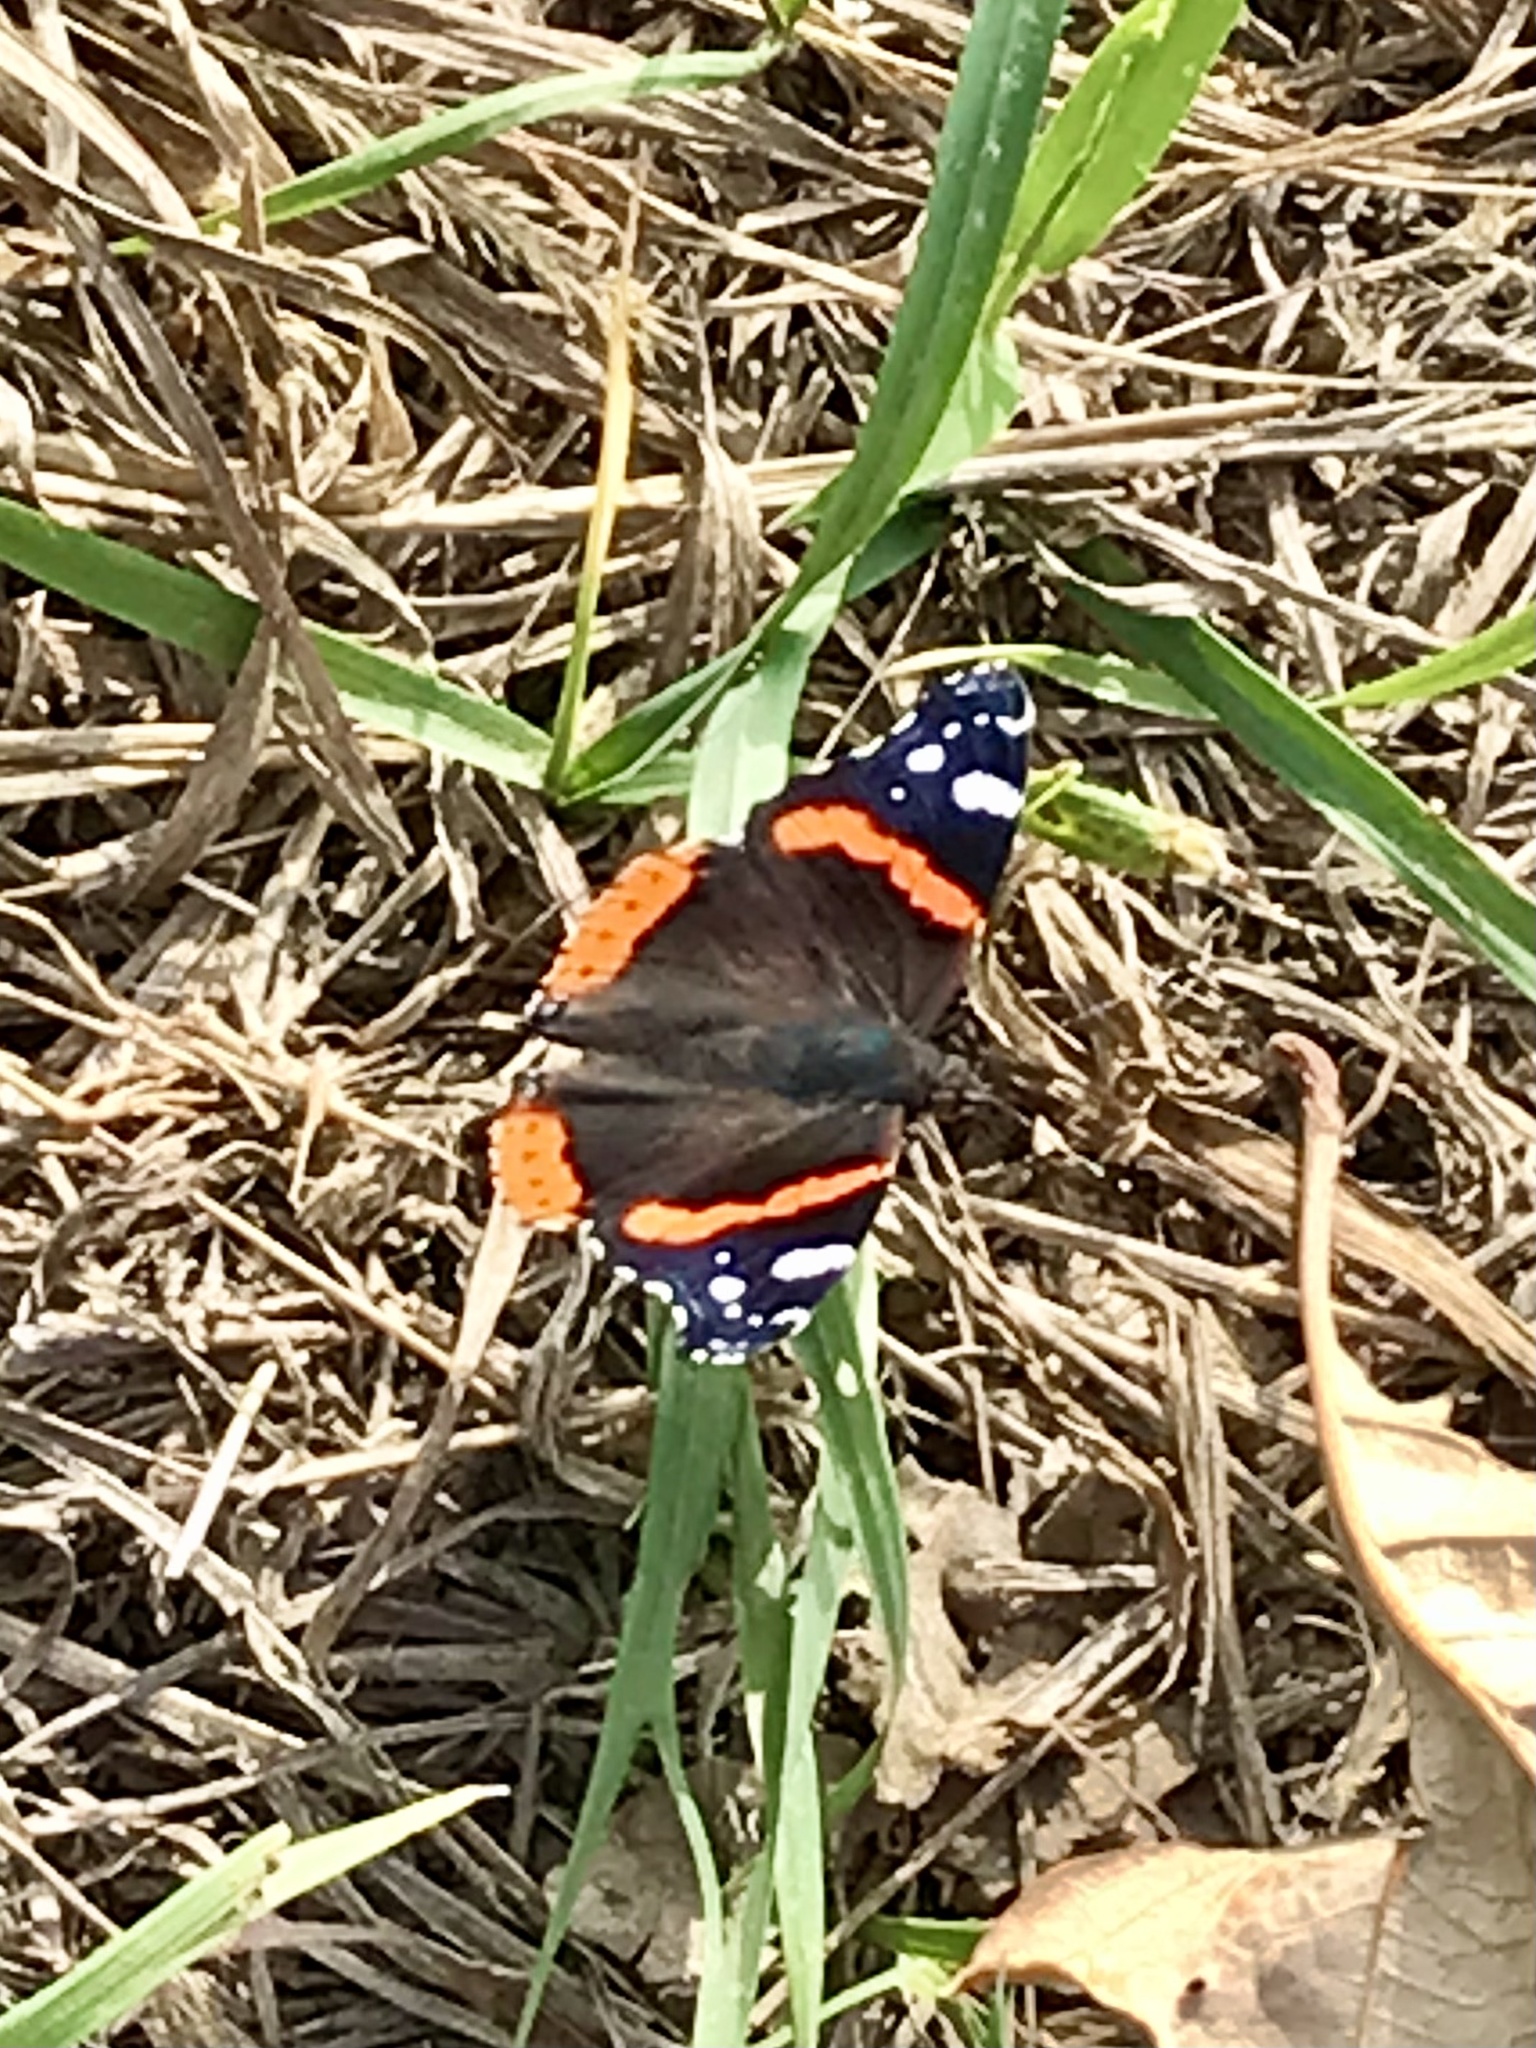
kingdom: Animalia
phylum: Arthropoda
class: Insecta
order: Lepidoptera
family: Nymphalidae
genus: Vanessa
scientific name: Vanessa atalanta
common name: Red admiral
